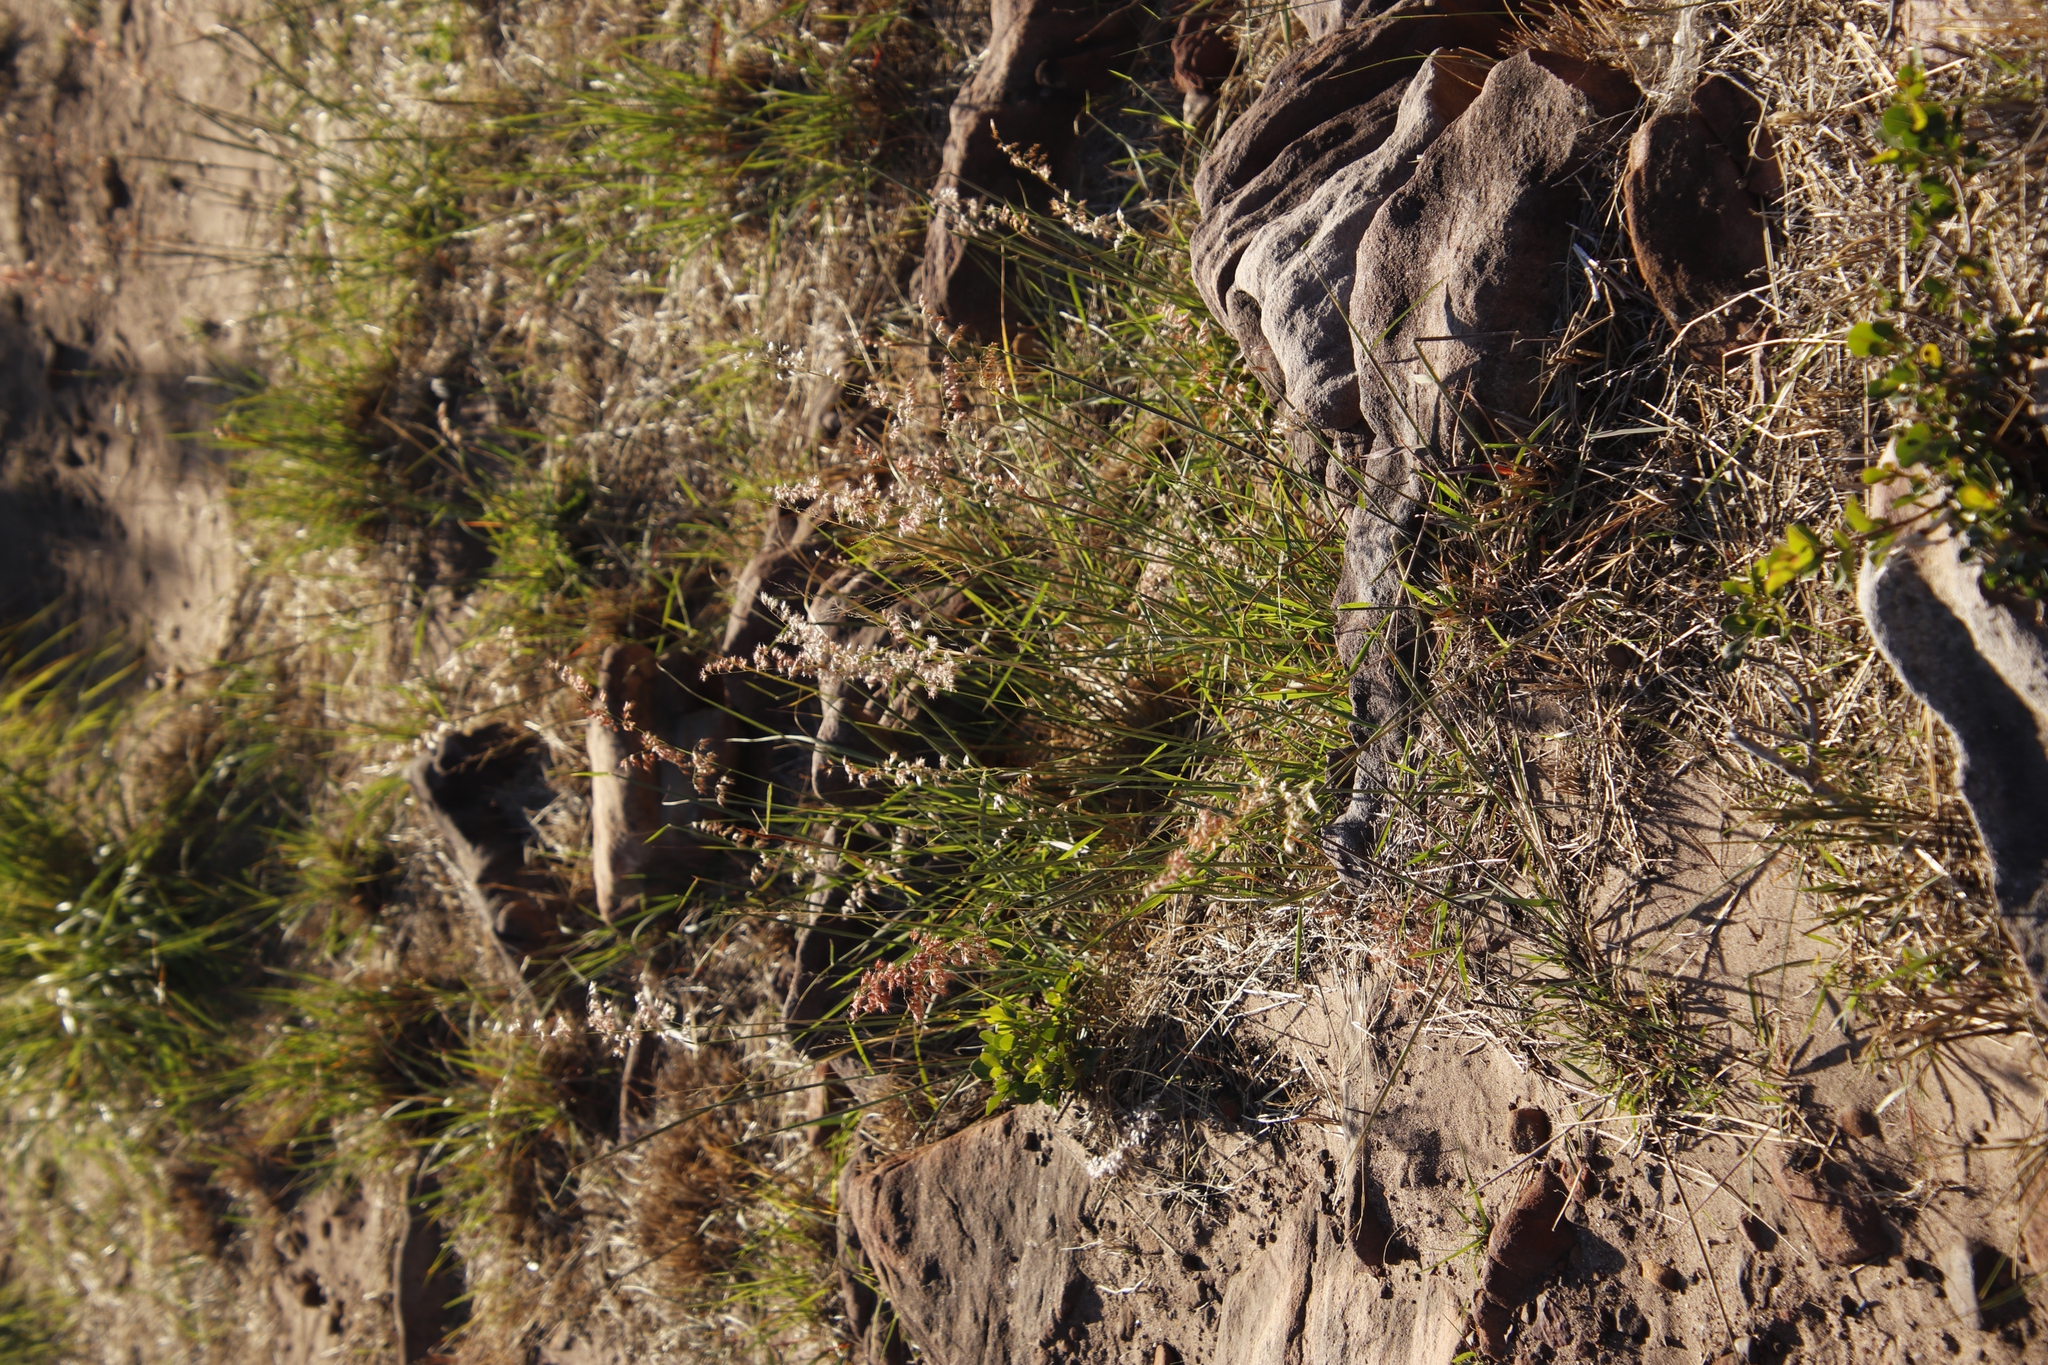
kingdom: Plantae
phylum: Tracheophyta
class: Liliopsida
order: Poales
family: Poaceae
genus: Melinis
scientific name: Melinis repens
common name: Rose natal grass
